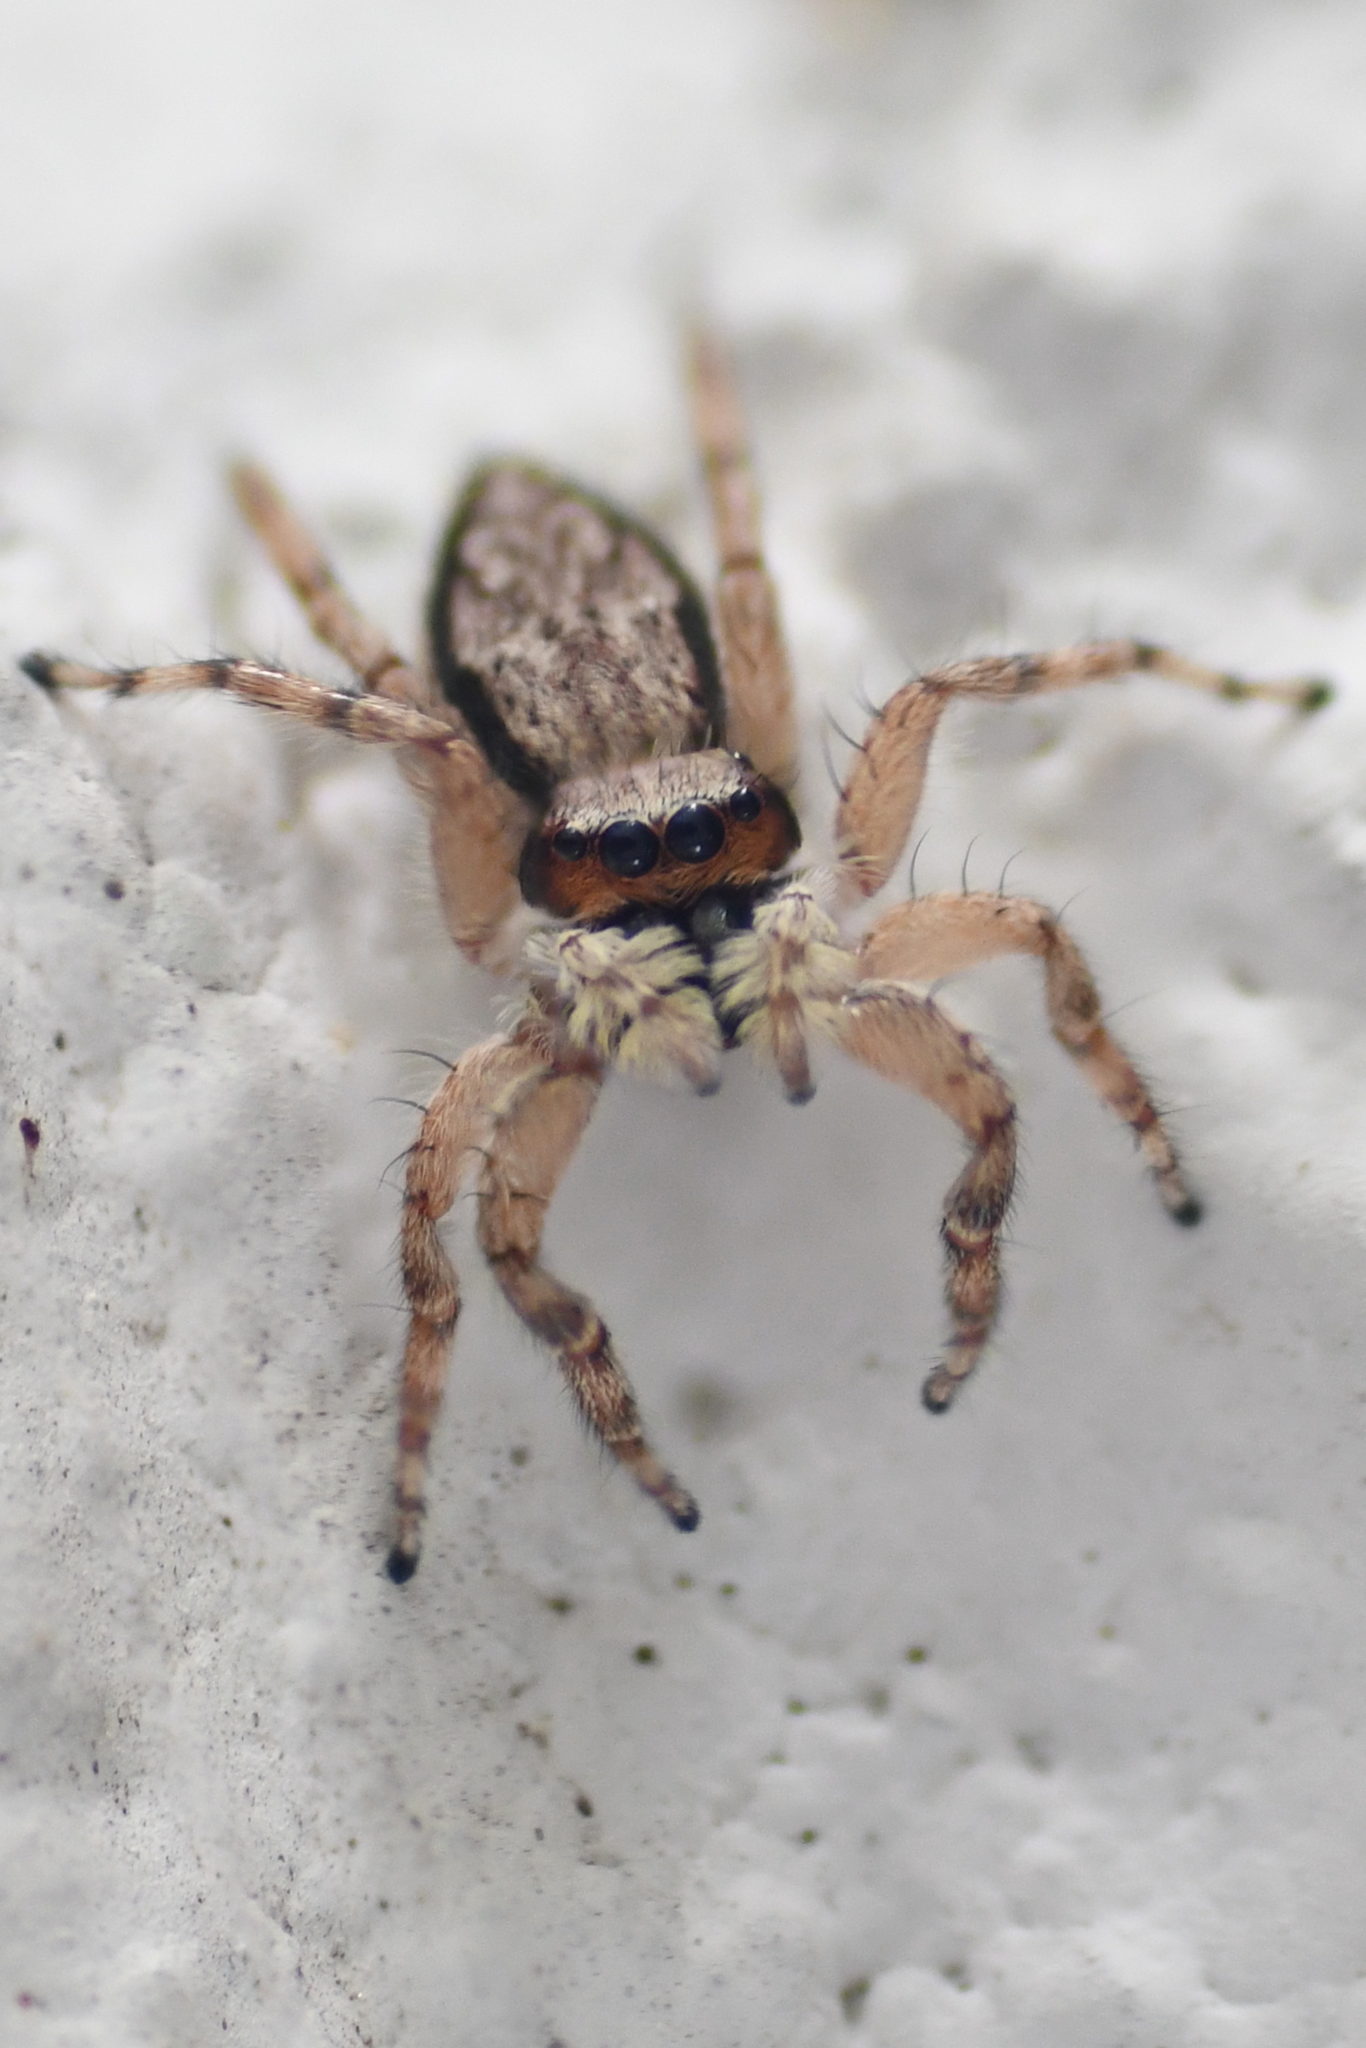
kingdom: Animalia
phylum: Arthropoda
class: Arachnida
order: Araneae
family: Salticidae
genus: Menemerus
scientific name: Menemerus bivittatus
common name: Gray wall jumper
